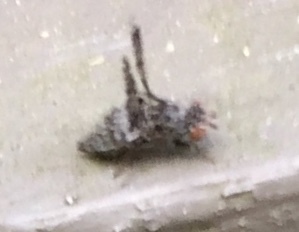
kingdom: Animalia
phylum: Arthropoda
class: Insecta
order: Diptera
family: Ulidiidae
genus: Callopistromyia
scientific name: Callopistromyia annulipes
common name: Peacock fly
